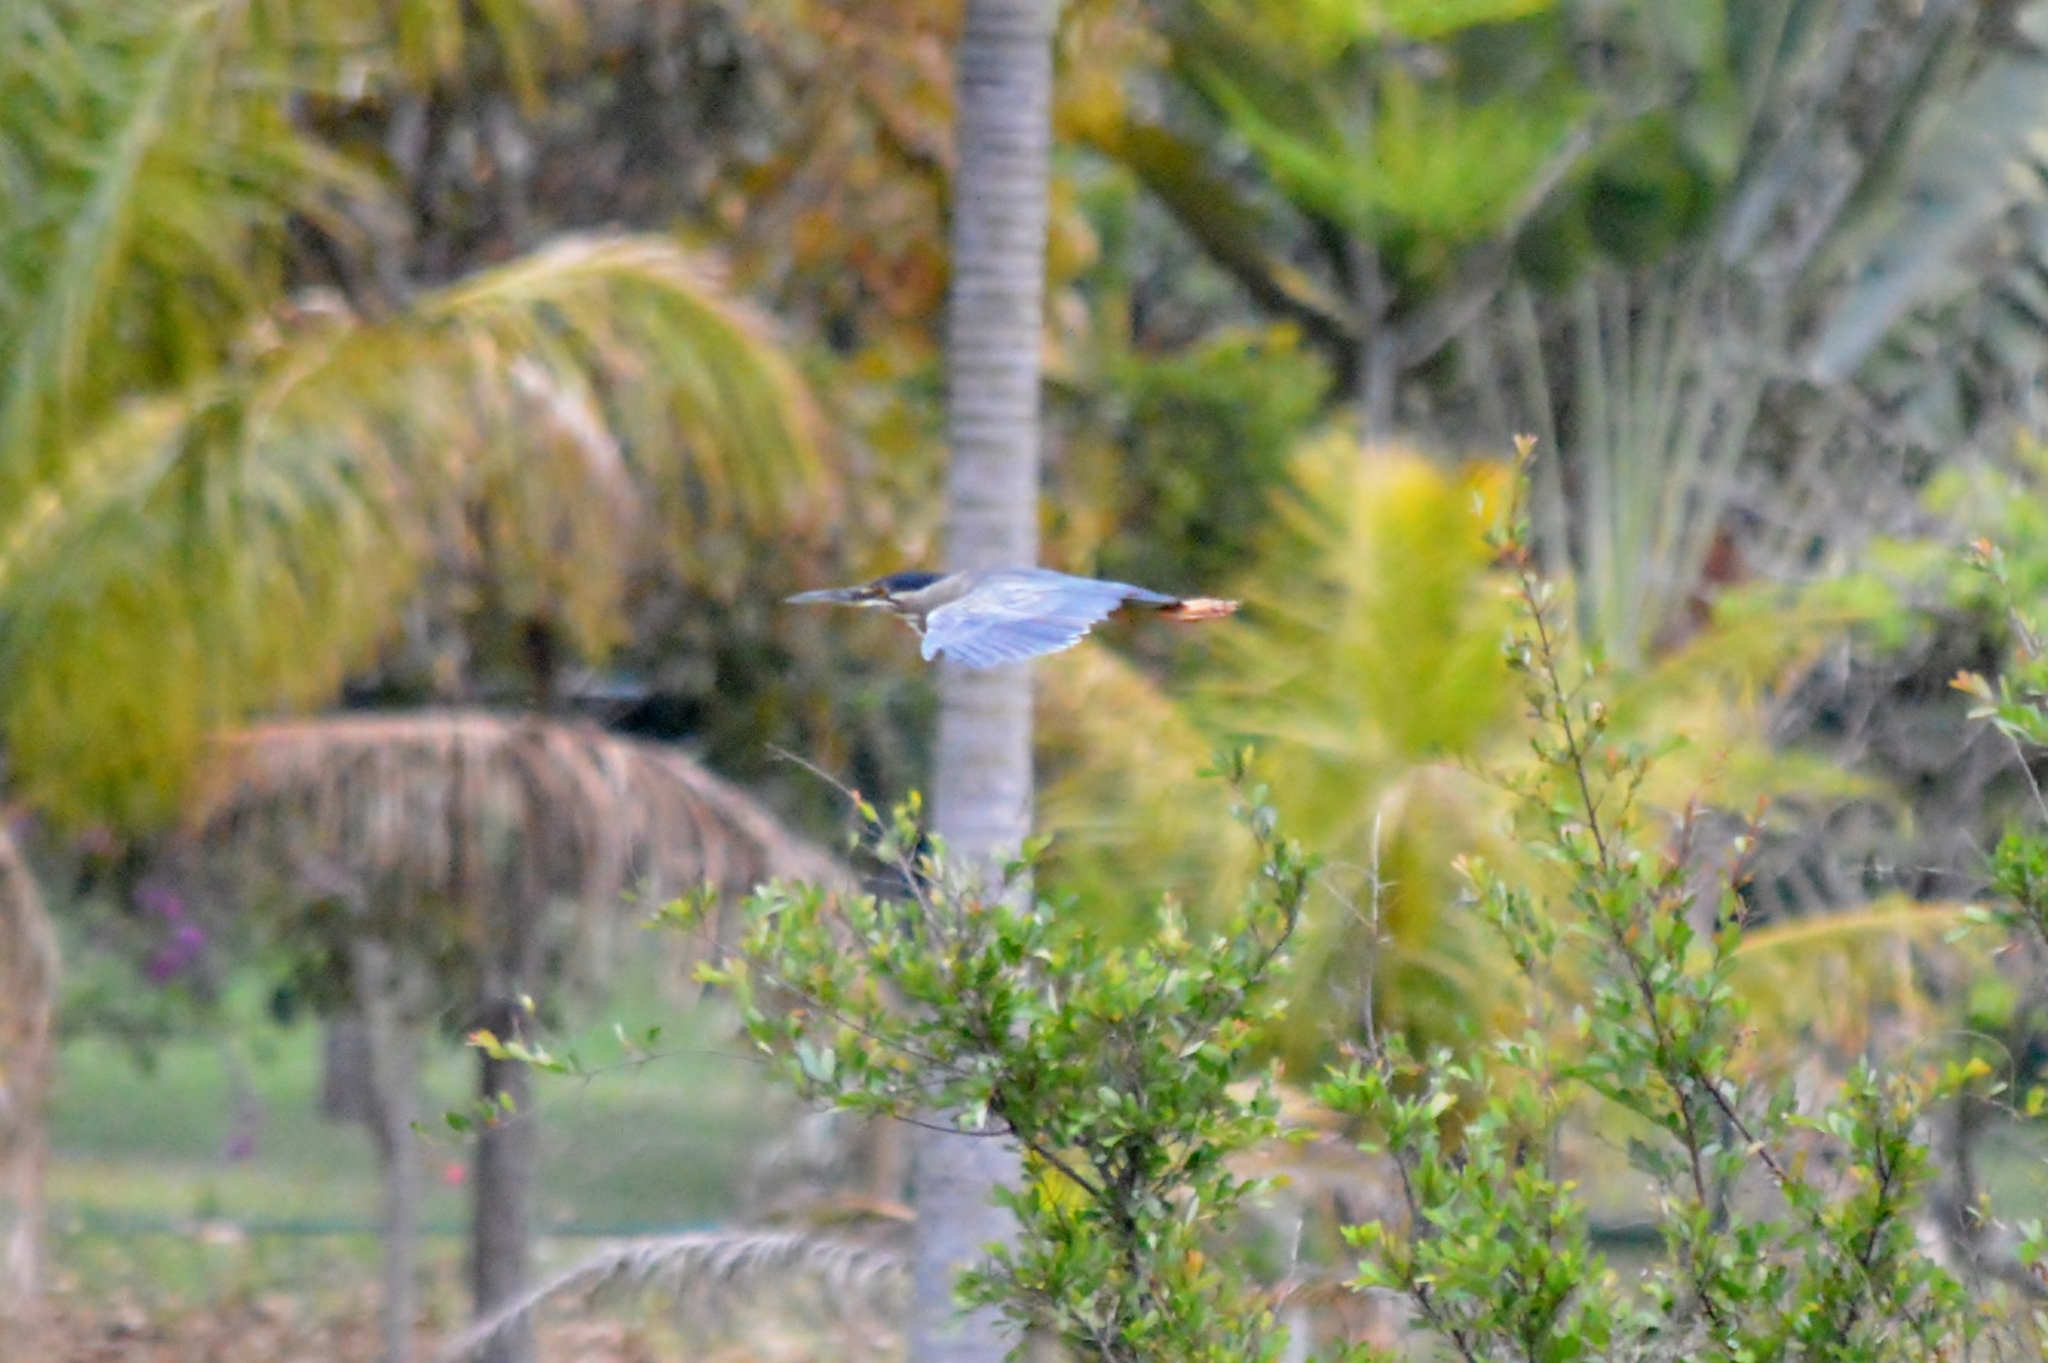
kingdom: Animalia
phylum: Chordata
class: Aves
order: Pelecaniformes
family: Ardeidae
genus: Butorides
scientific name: Butorides striata
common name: Striated heron
